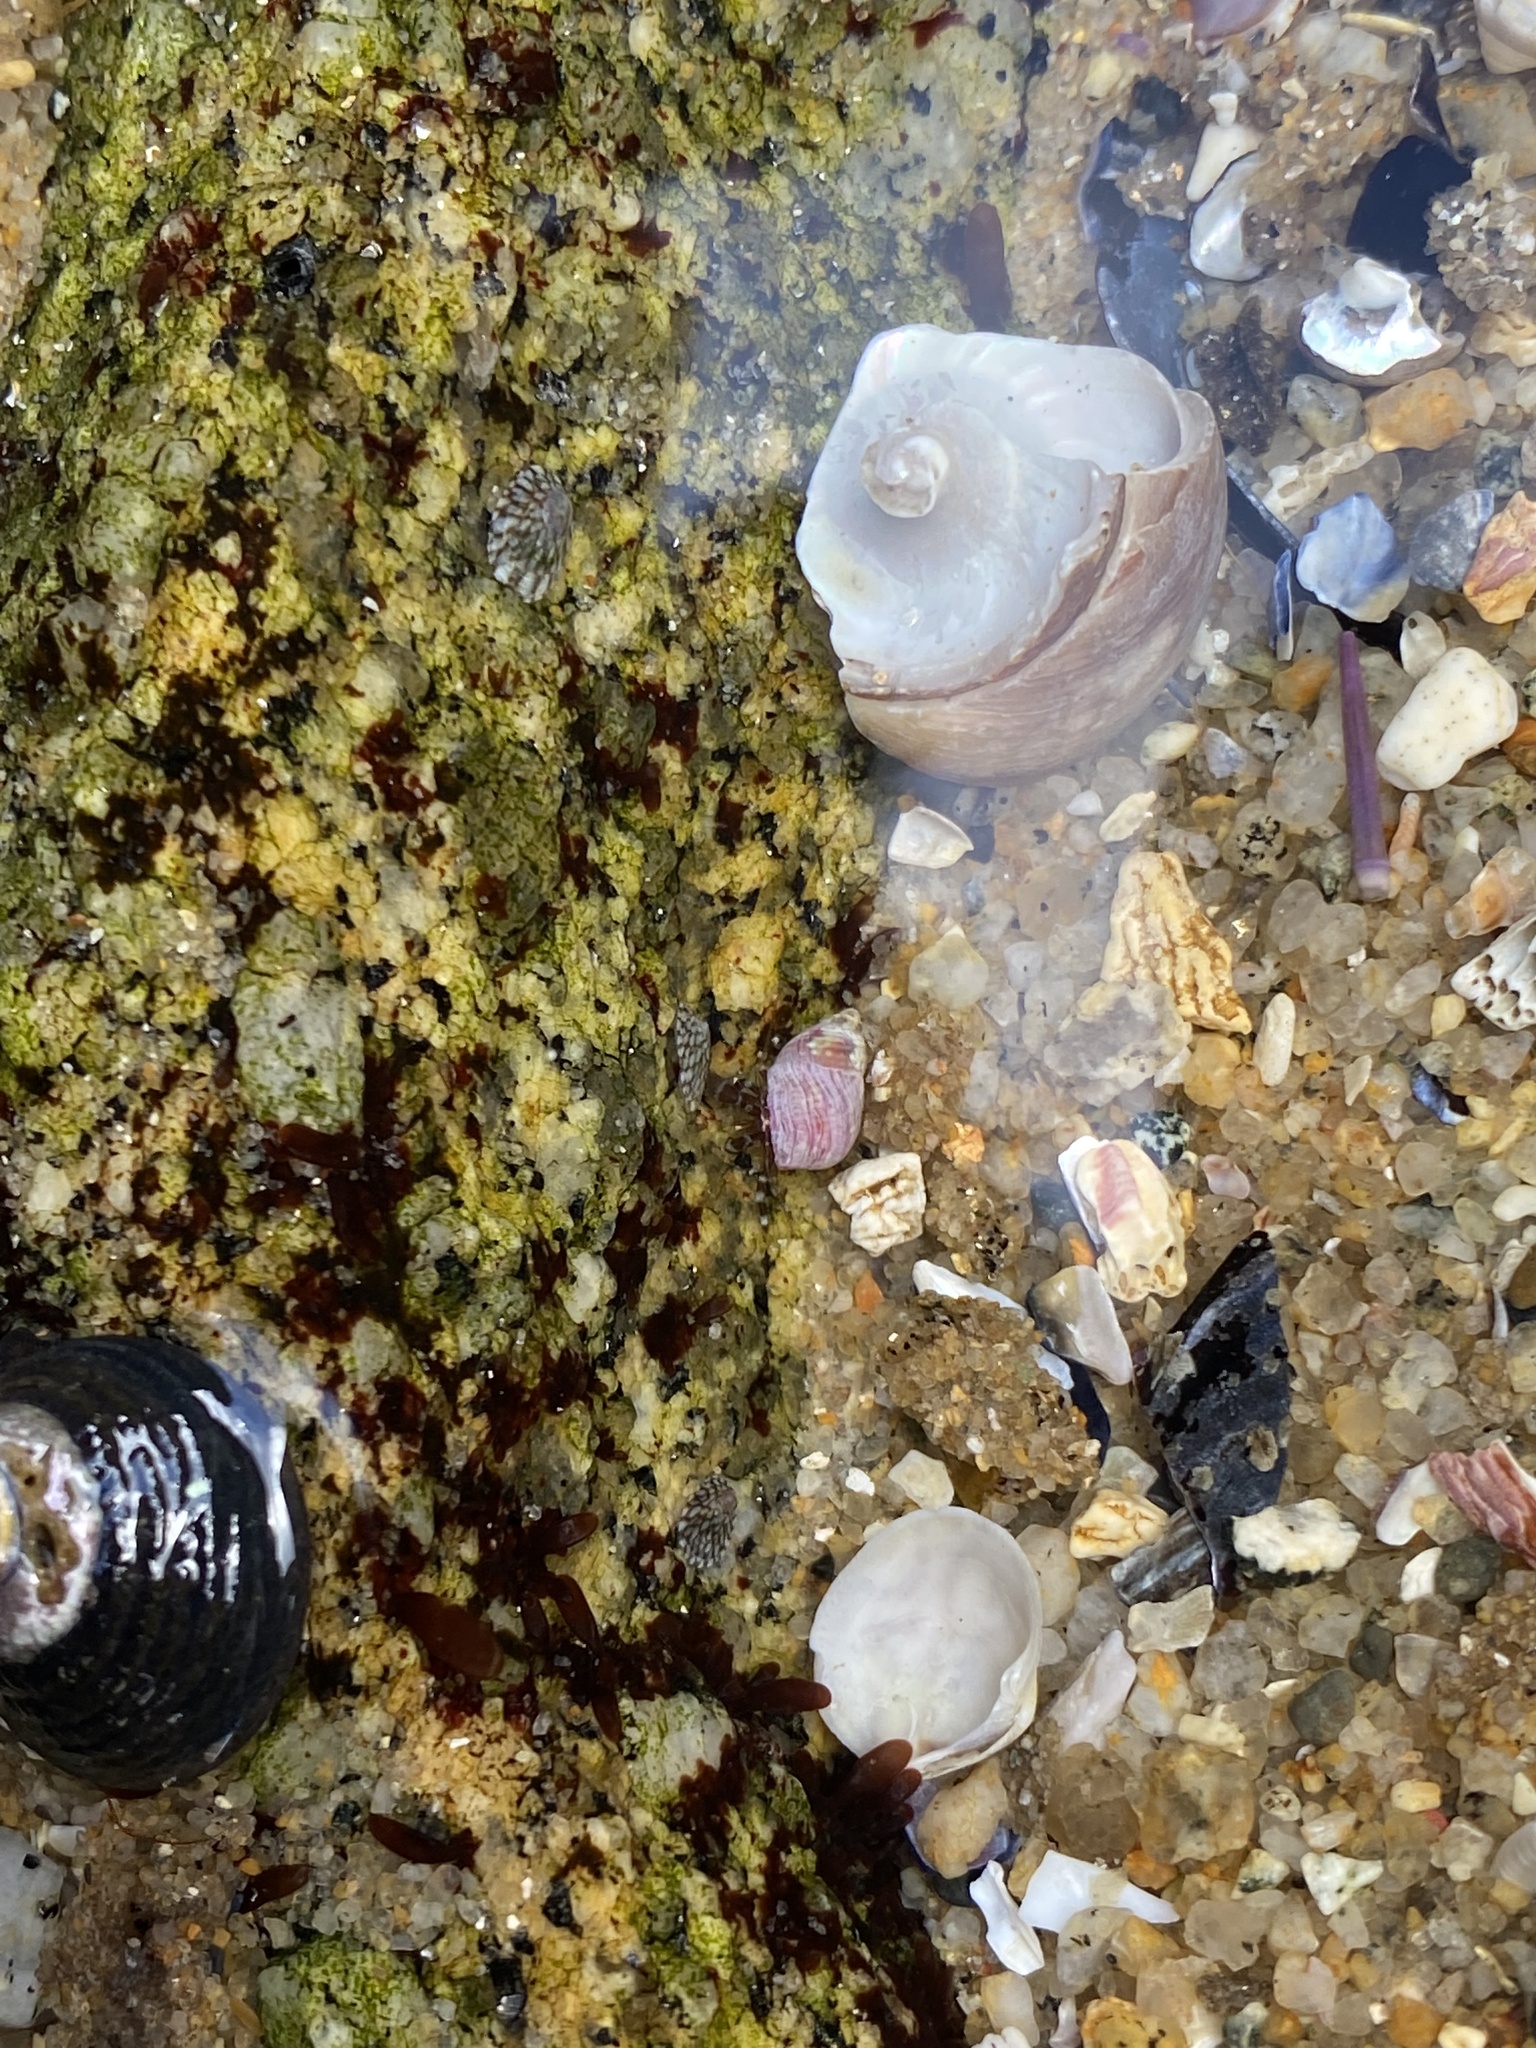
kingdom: Animalia
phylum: Mollusca
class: Gastropoda
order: Neogastropoda
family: Conidae
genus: Californiconus
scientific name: Californiconus californicus
